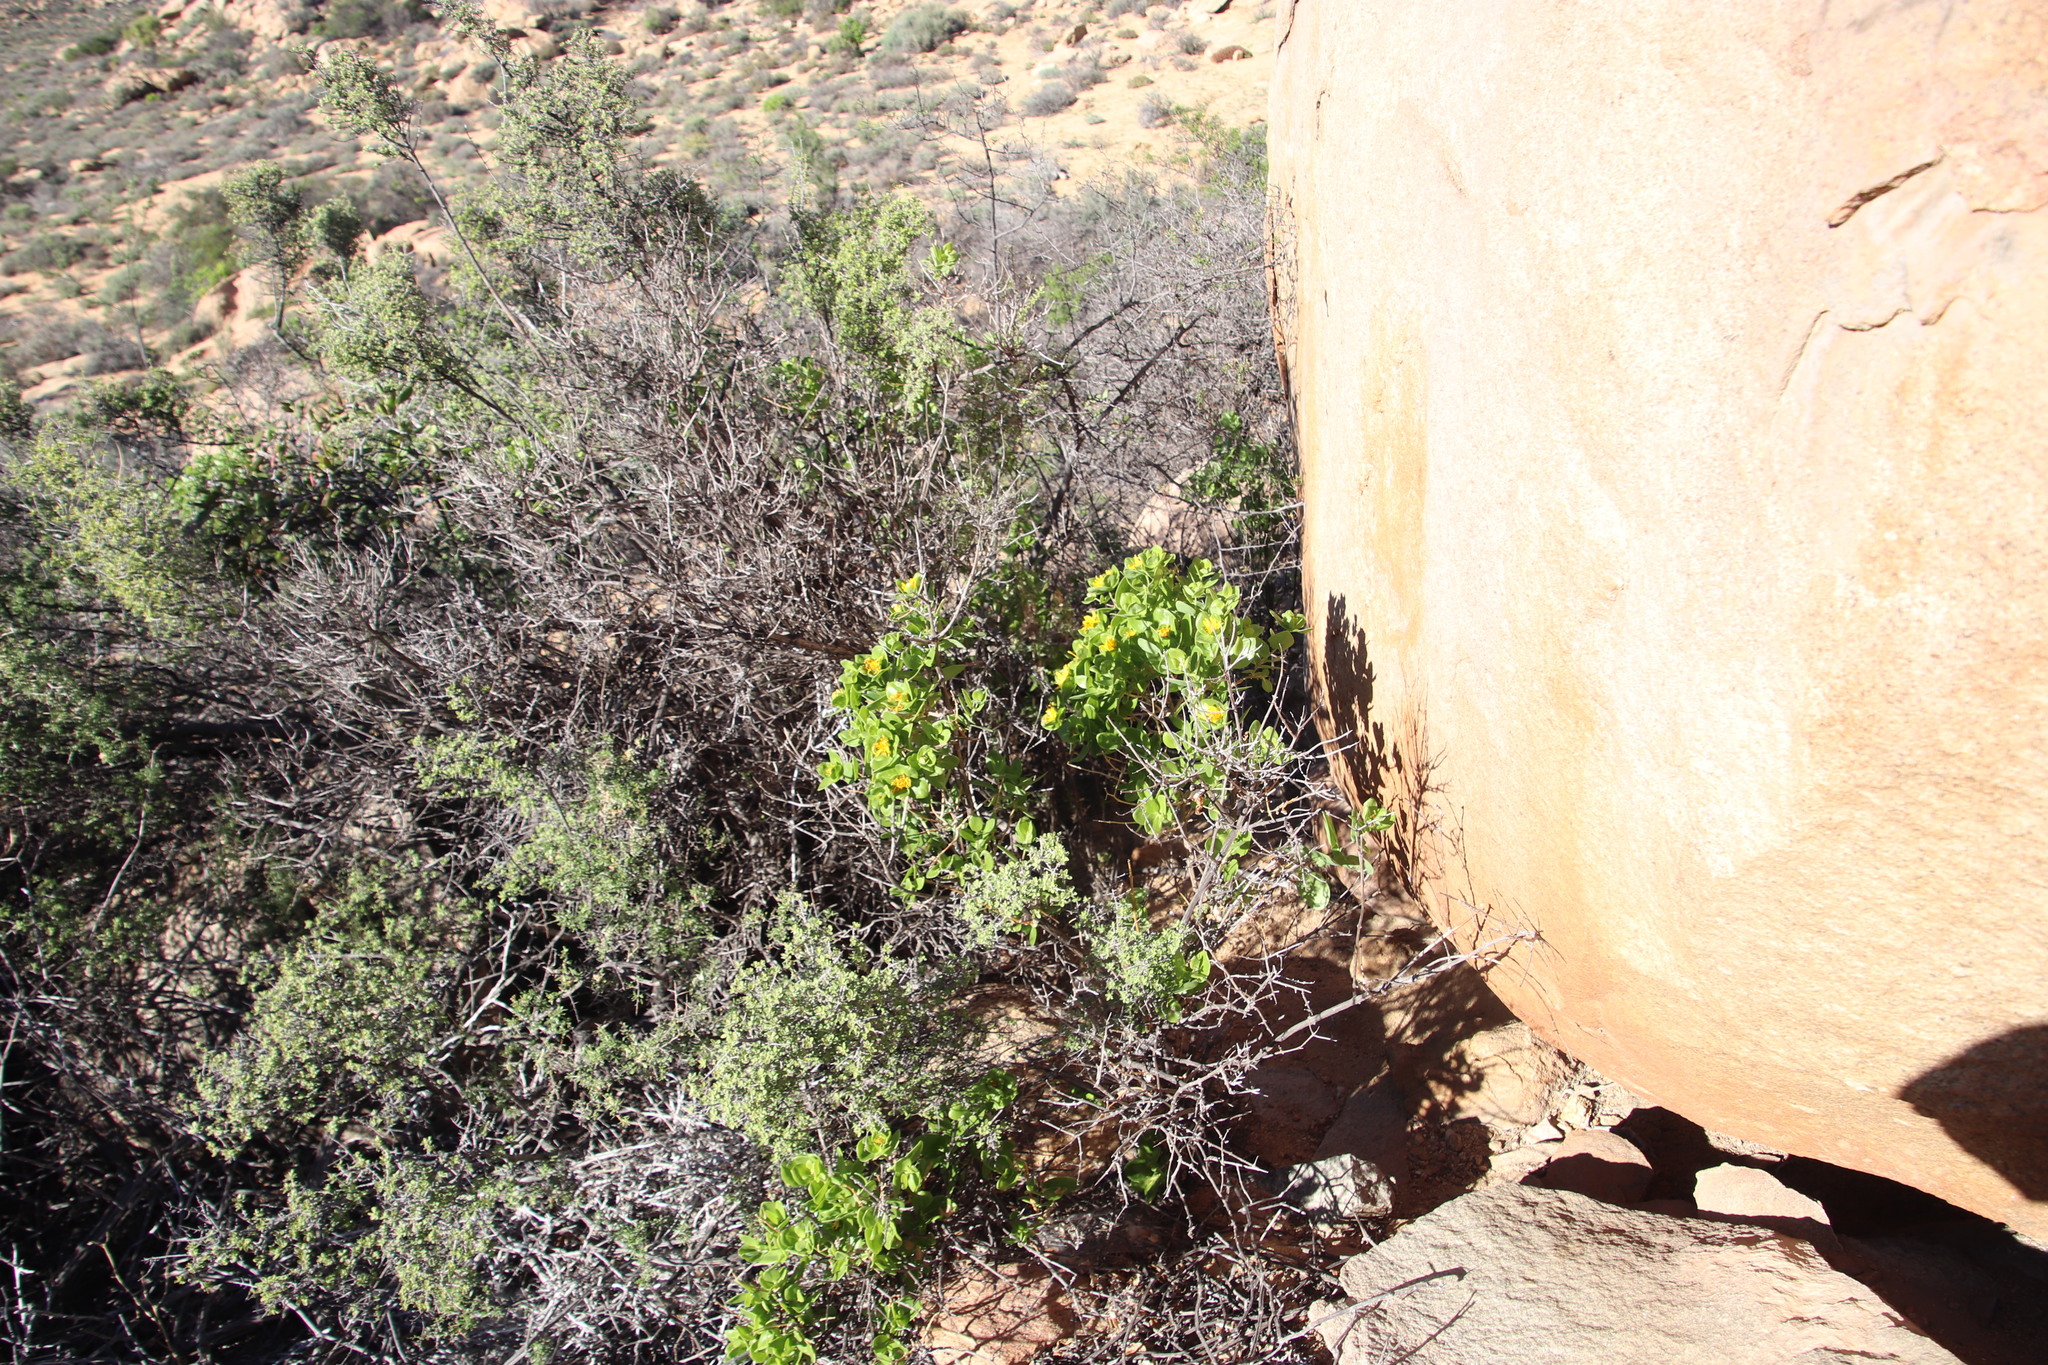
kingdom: Plantae
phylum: Tracheophyta
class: Magnoliopsida
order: Asterales
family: Asteraceae
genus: Didelta
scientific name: Didelta spinosa
